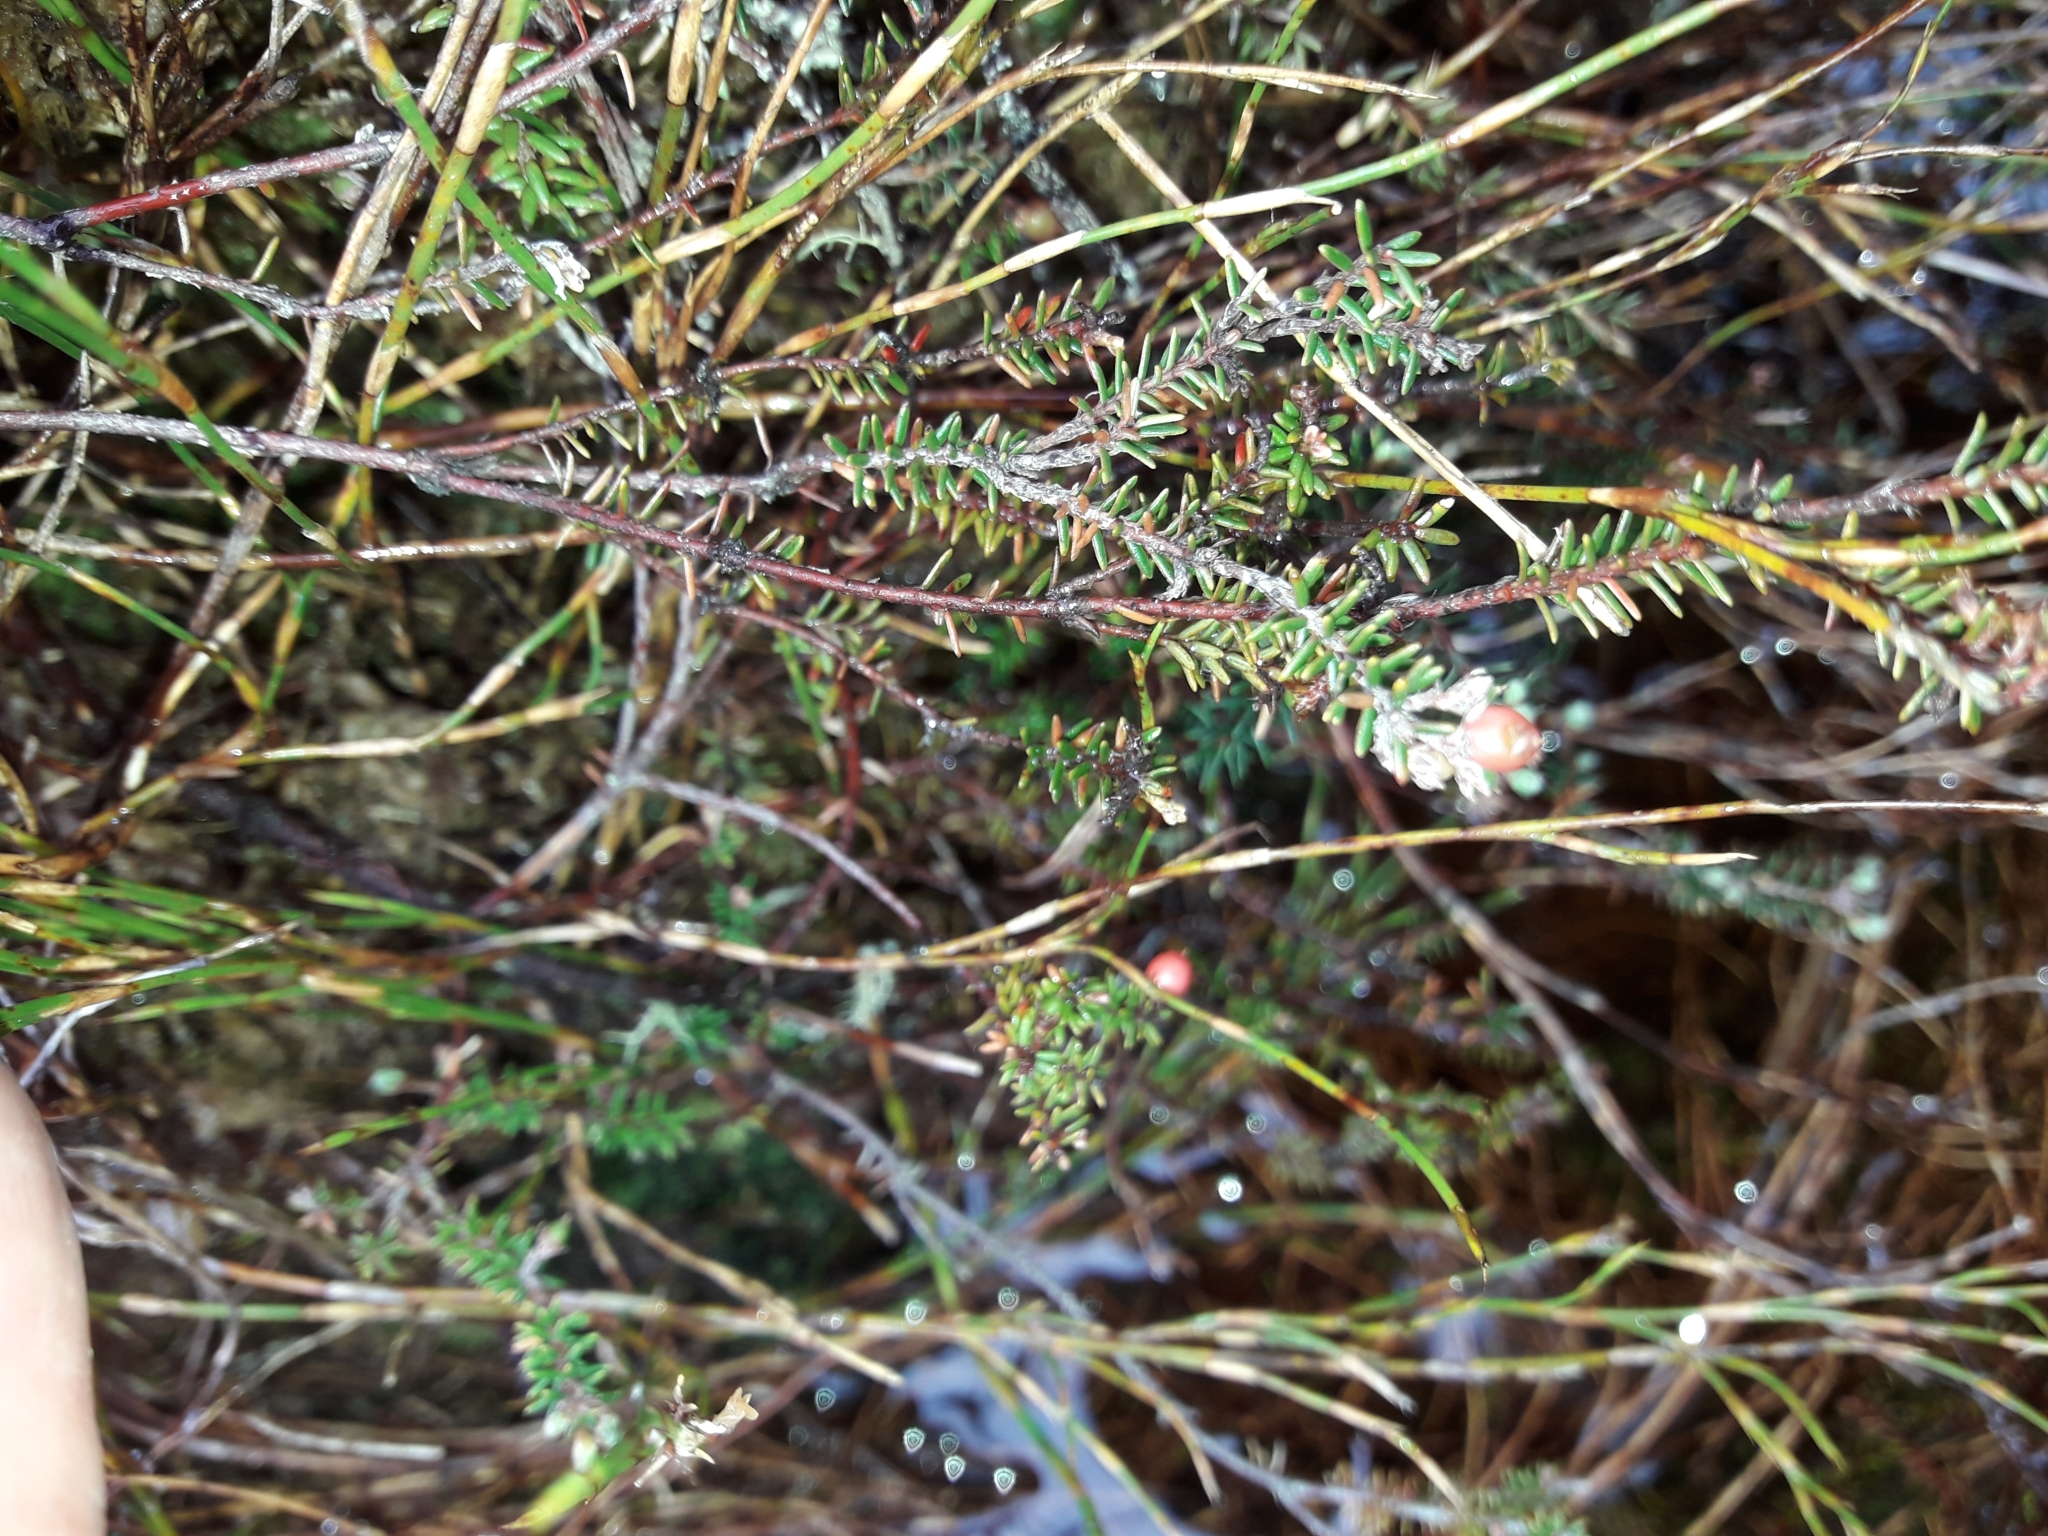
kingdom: Plantae
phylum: Tracheophyta
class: Magnoliopsida
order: Ericales
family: Ericaceae
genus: Androstoma
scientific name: Androstoma empetrifolia
